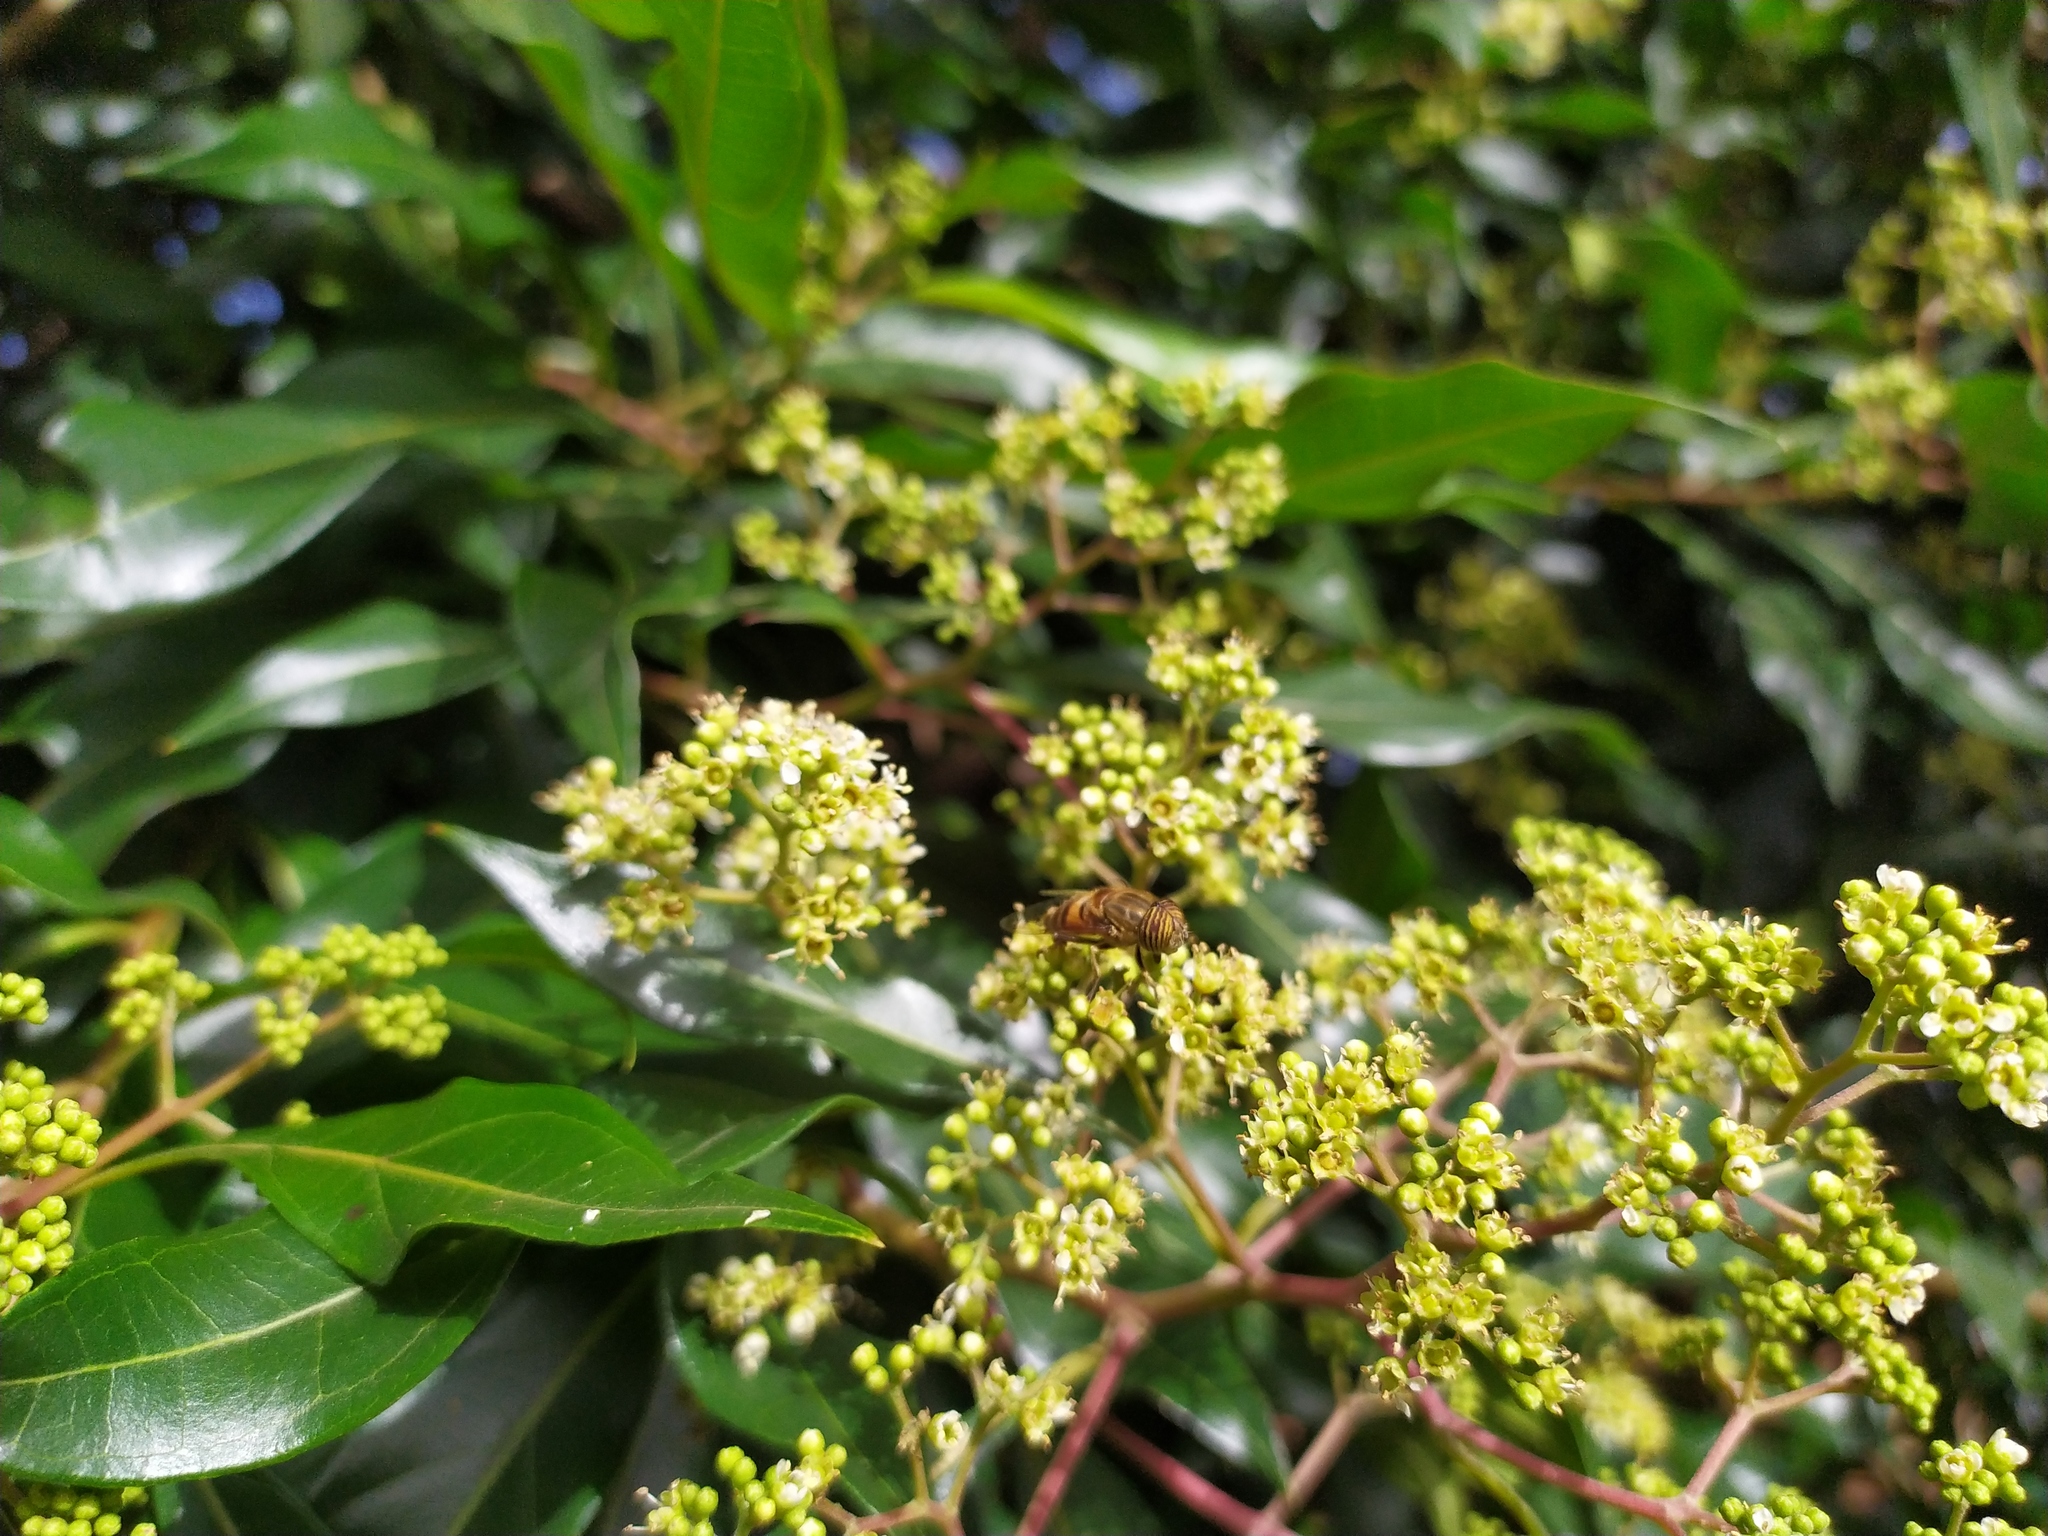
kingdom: Animalia
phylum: Arthropoda
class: Insecta
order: Diptera
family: Syrphidae
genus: Eristalinus
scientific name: Eristalinus taeniops
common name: Syrphid fly
